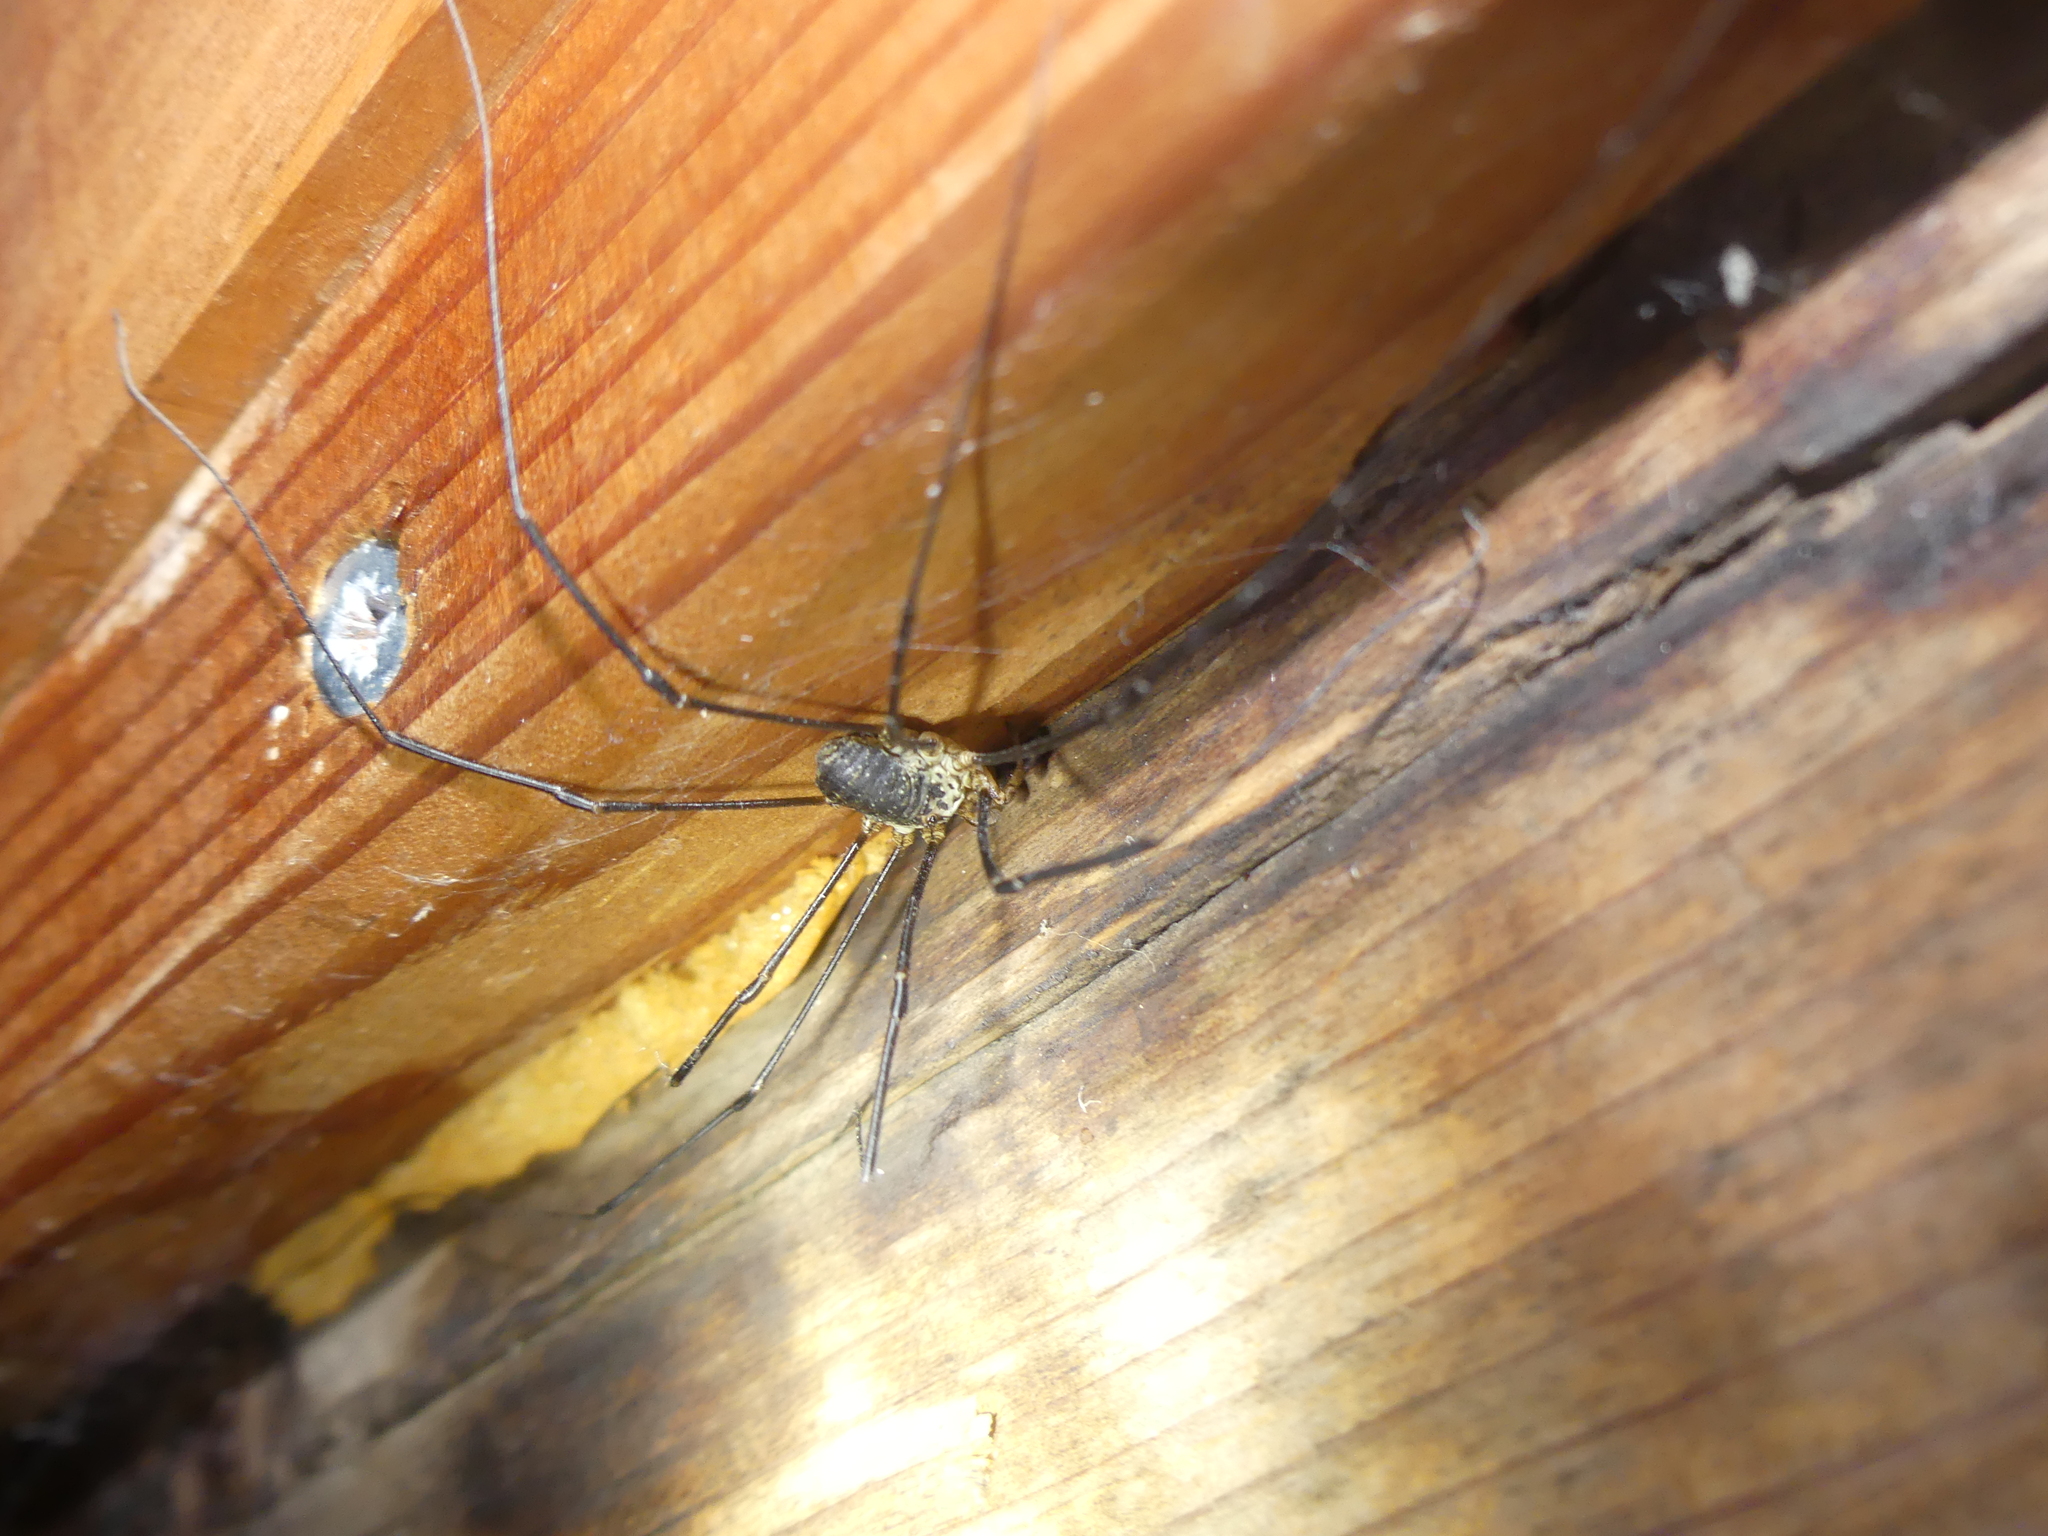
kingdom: Animalia
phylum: Arthropoda
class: Arachnida
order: Opiliones
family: Phalangiidae
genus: Mitopus
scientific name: Mitopus glacialis
